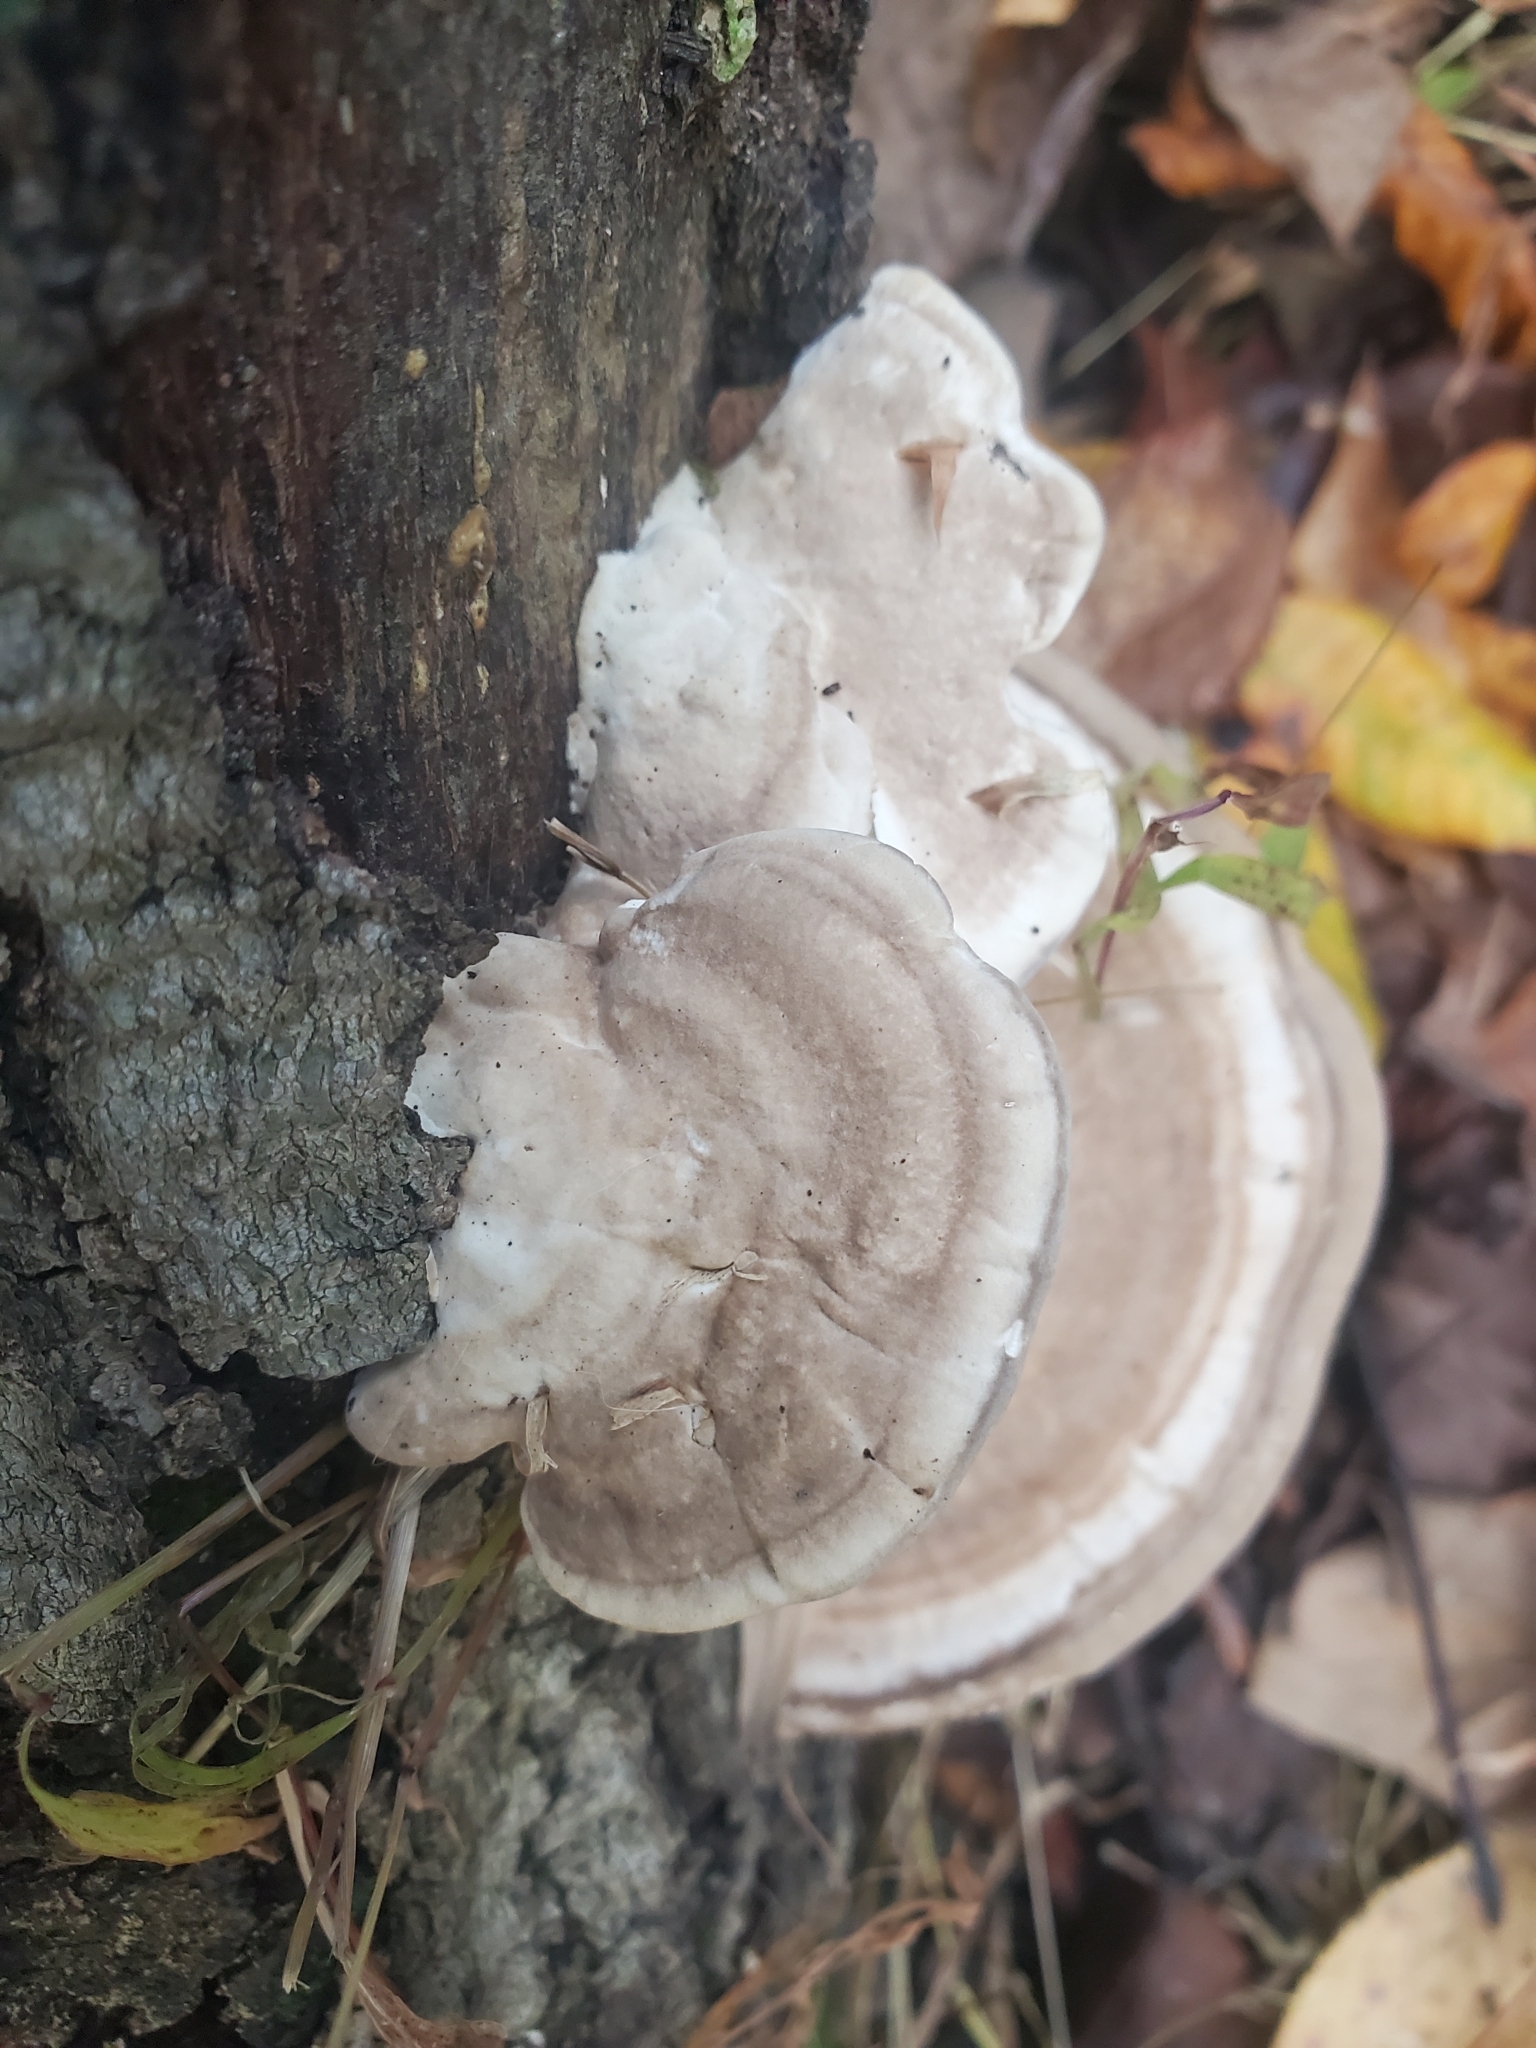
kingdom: Fungi
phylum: Basidiomycota
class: Agaricomycetes
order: Polyporales
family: Polyporaceae
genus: Trametes
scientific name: Trametes lactinea
